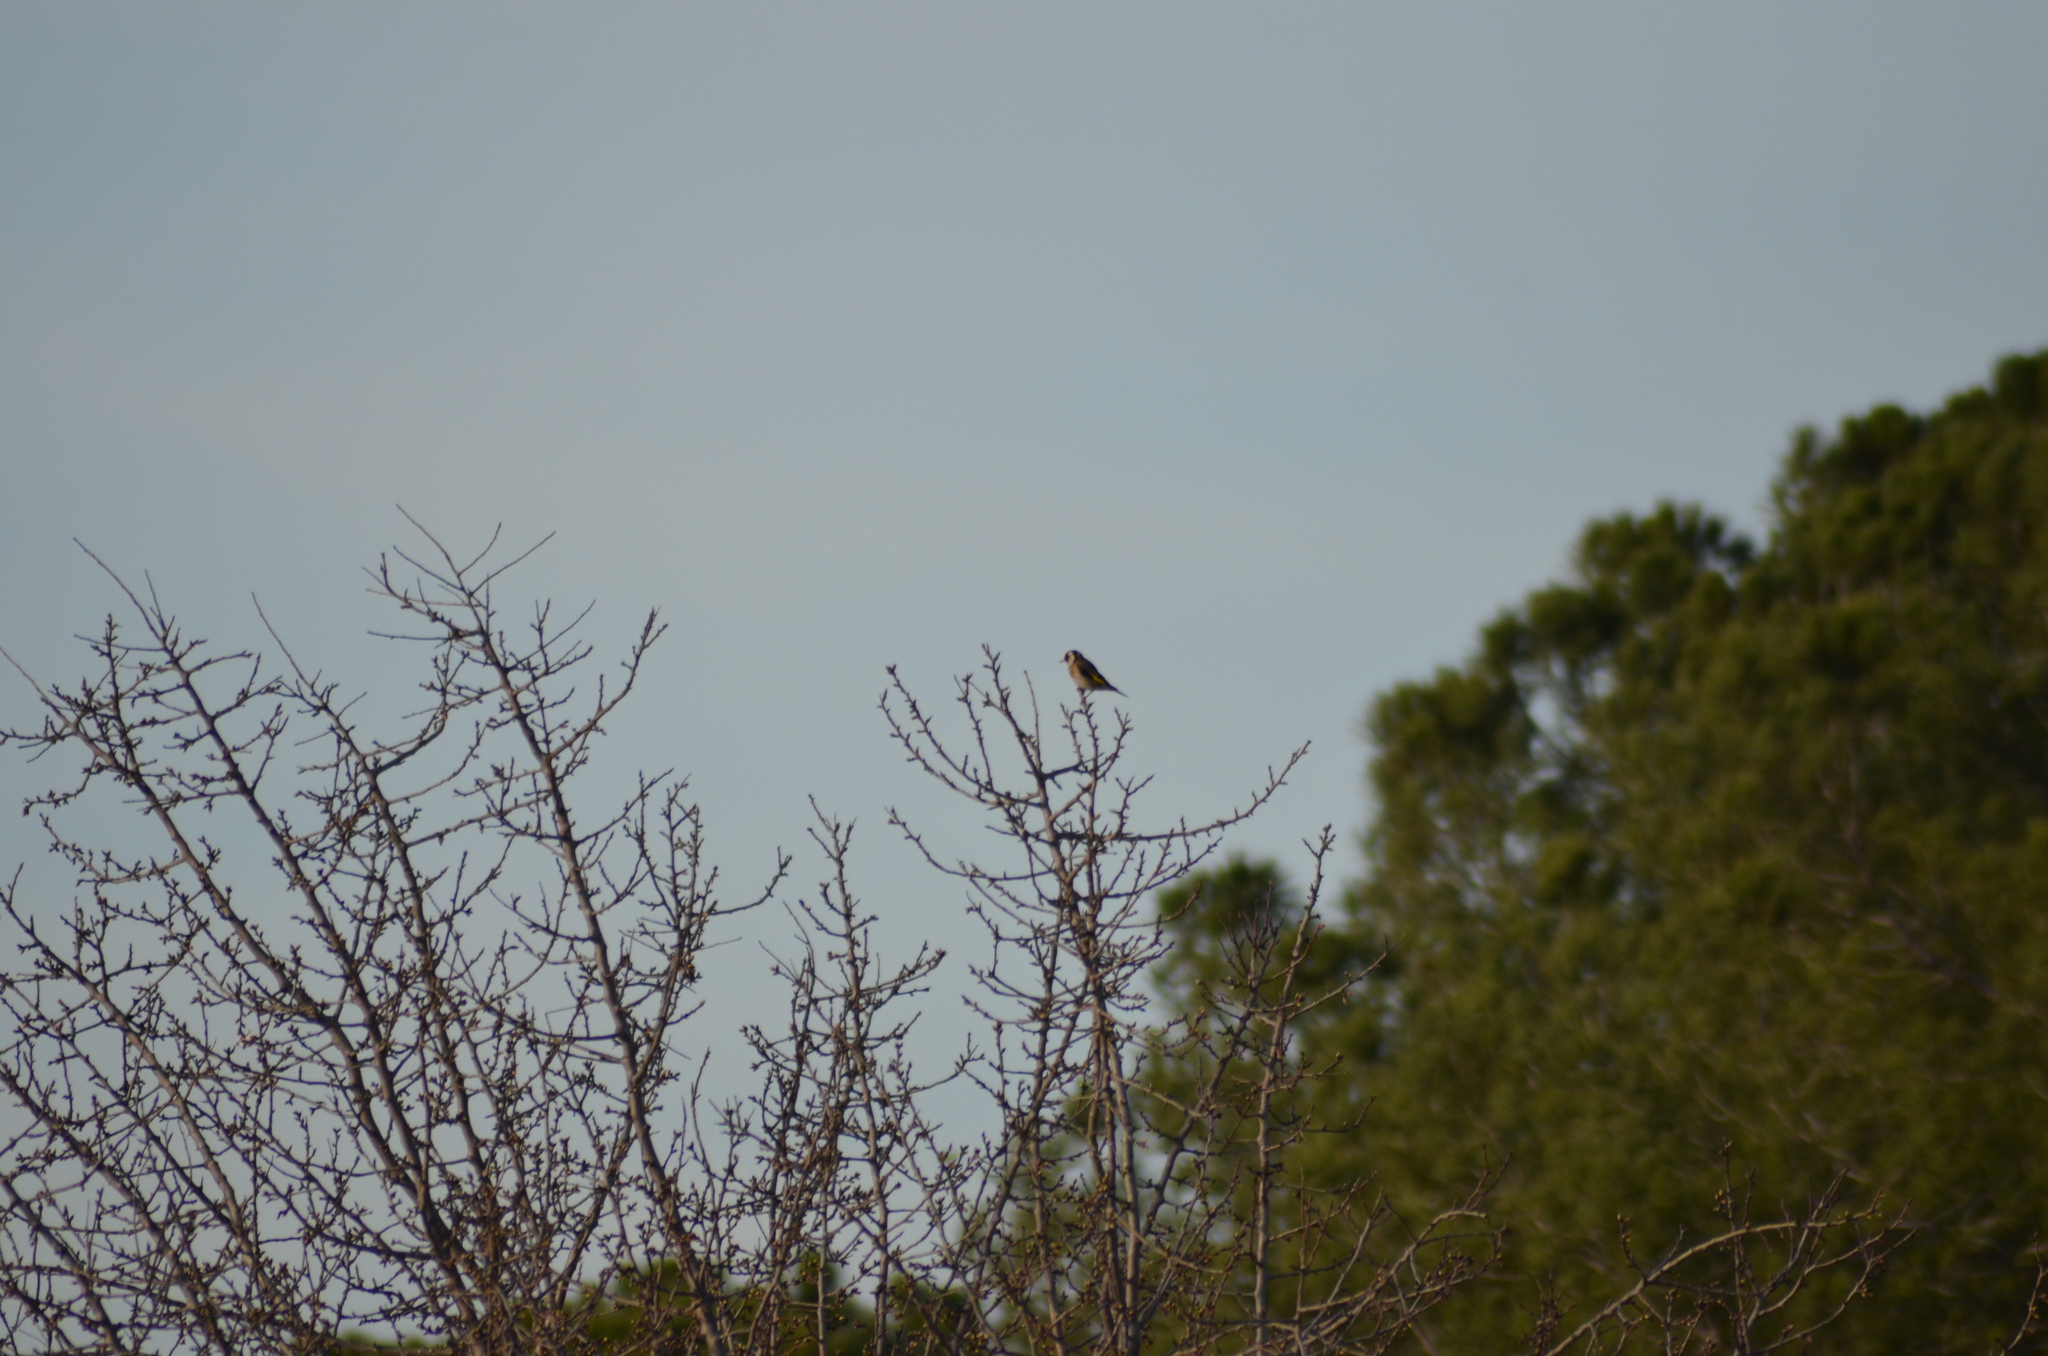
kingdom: Animalia
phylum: Chordata
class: Aves
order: Passeriformes
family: Fringillidae
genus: Carduelis
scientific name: Carduelis carduelis
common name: European goldfinch
